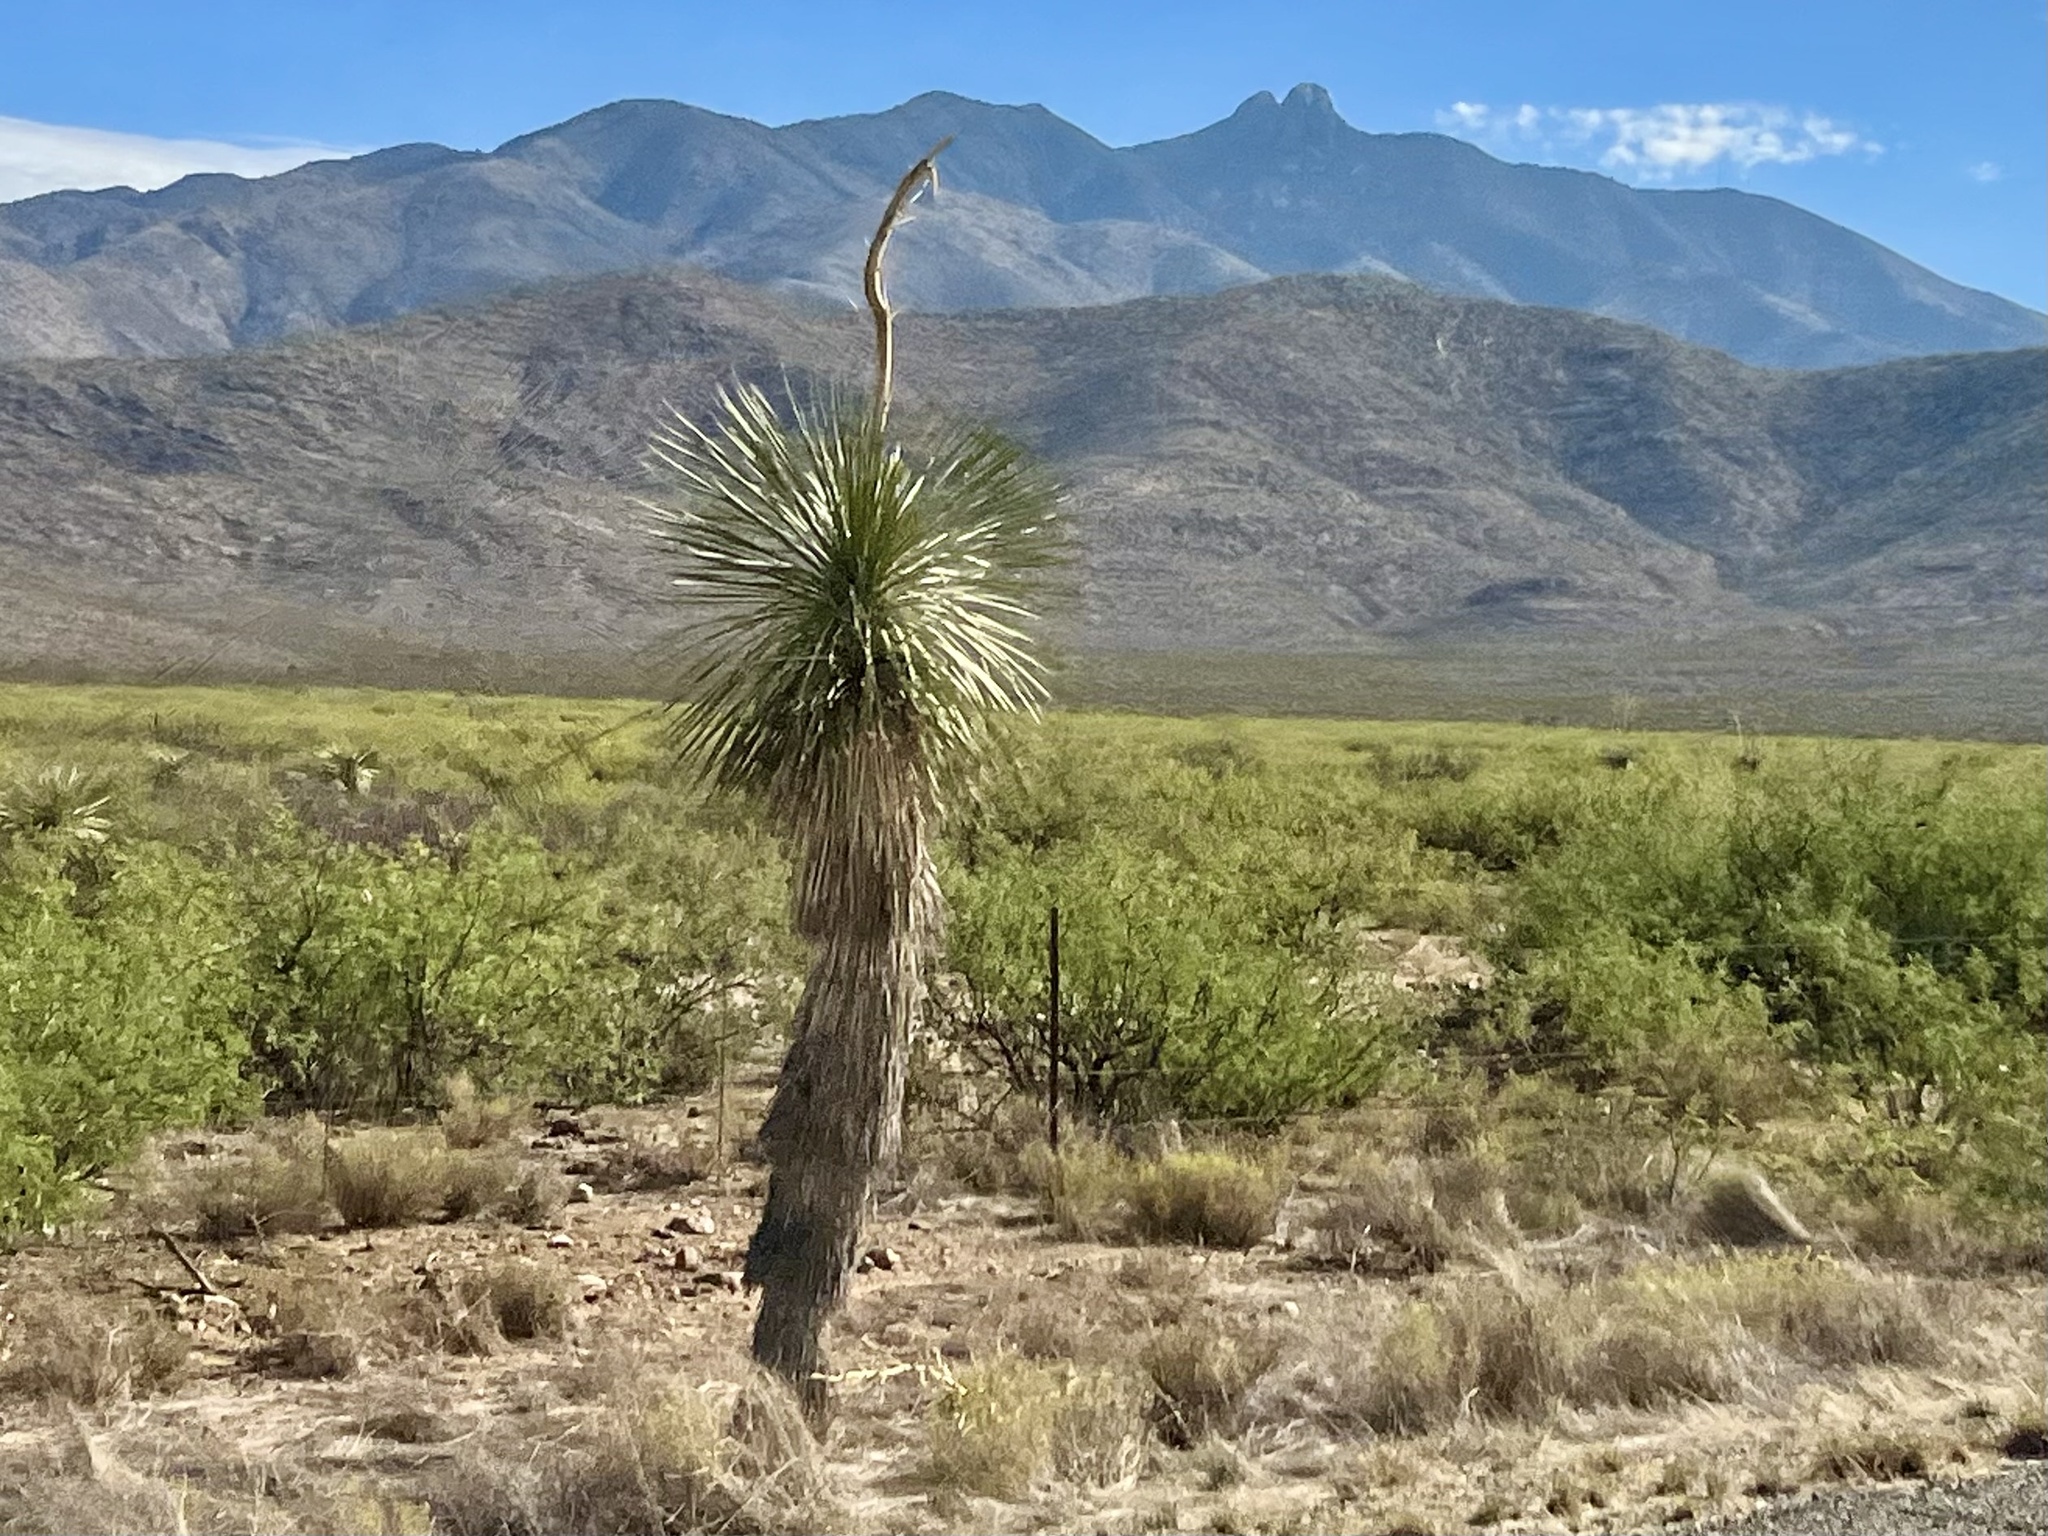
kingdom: Plantae
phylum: Tracheophyta
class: Liliopsida
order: Asparagales
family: Asparagaceae
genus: Yucca
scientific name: Yucca elata
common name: Palmella
